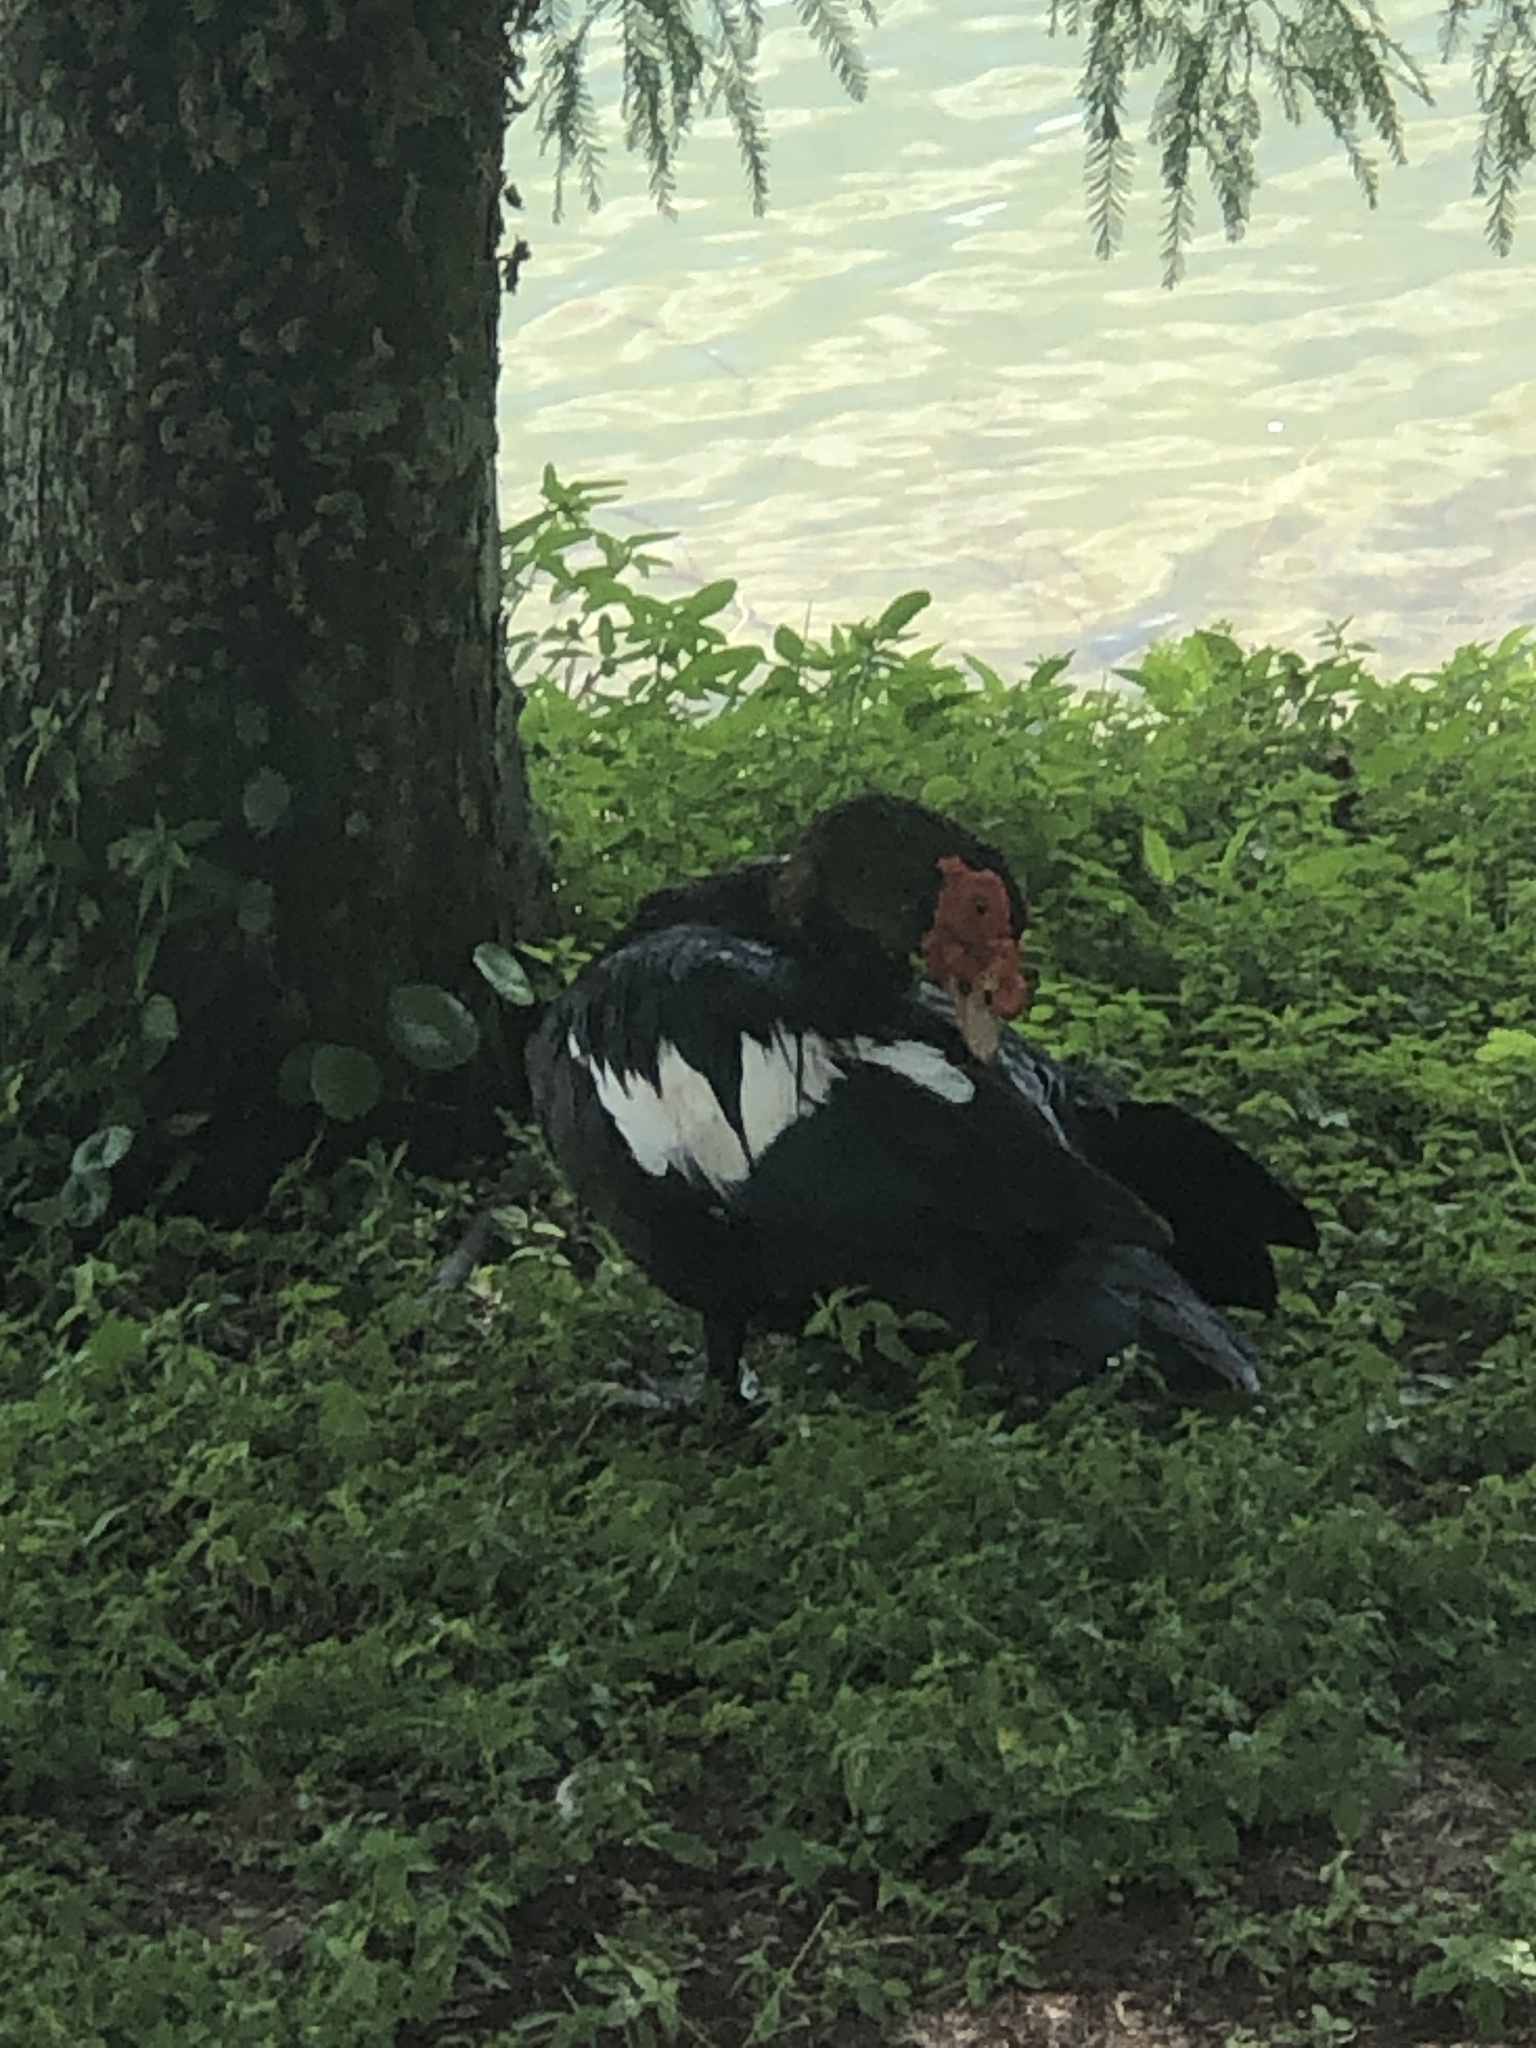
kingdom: Animalia
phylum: Chordata
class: Aves
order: Anseriformes
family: Anatidae
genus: Cairina
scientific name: Cairina moschata
